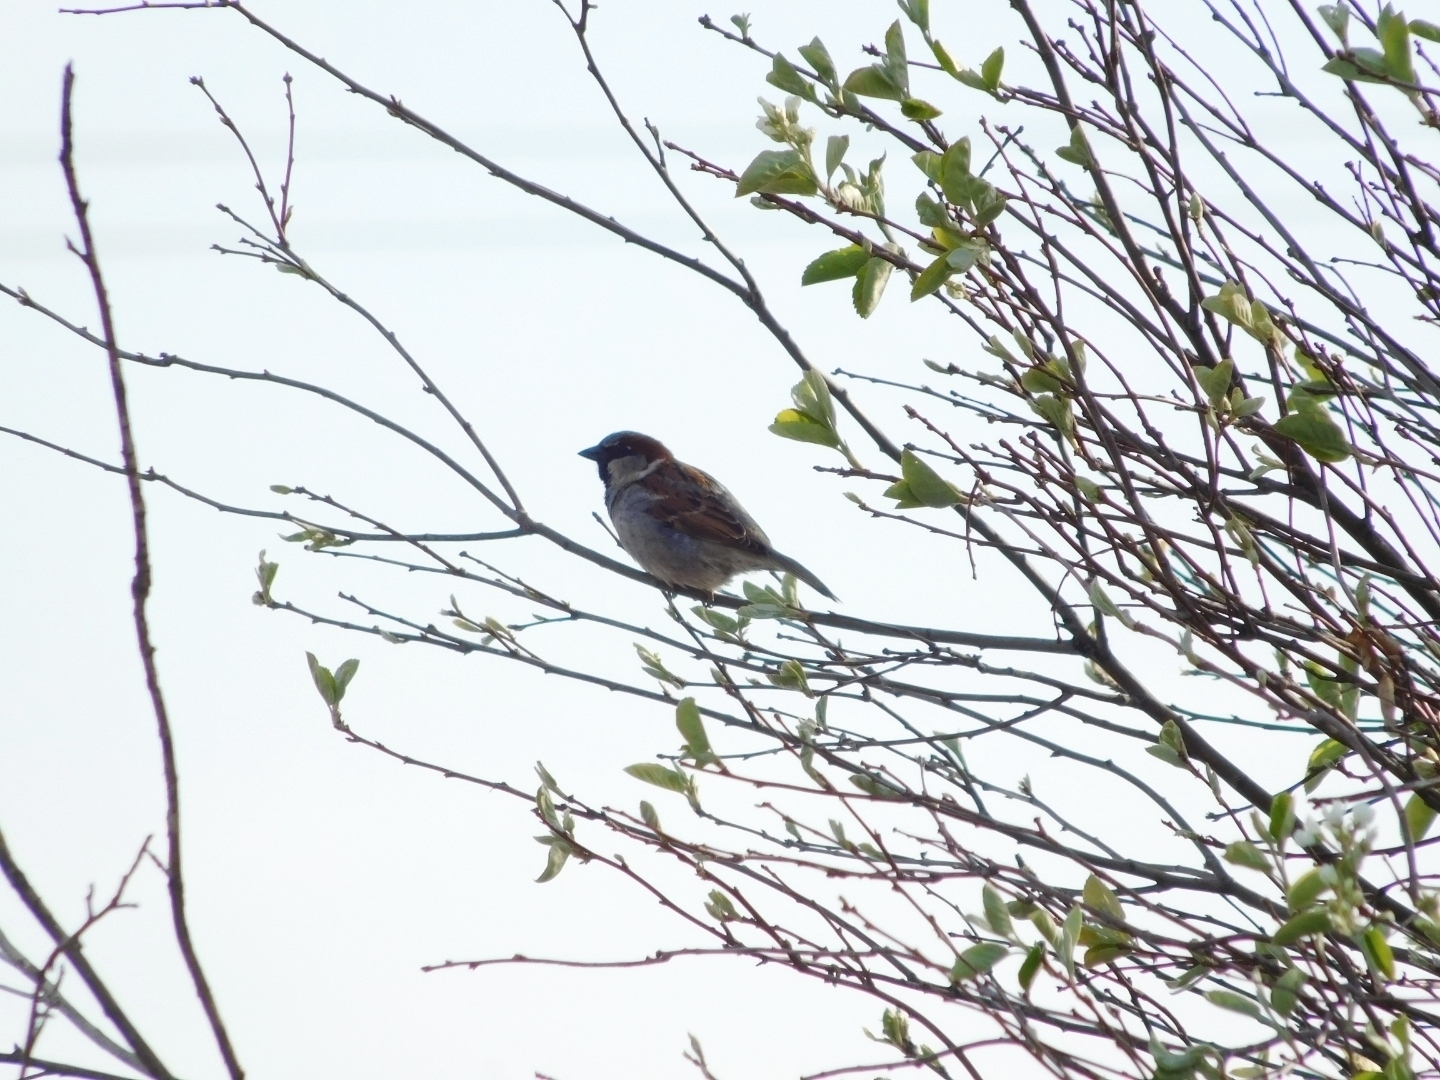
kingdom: Animalia
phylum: Chordata
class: Aves
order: Passeriformes
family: Passeridae
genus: Passer
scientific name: Passer domesticus
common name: House sparrow
